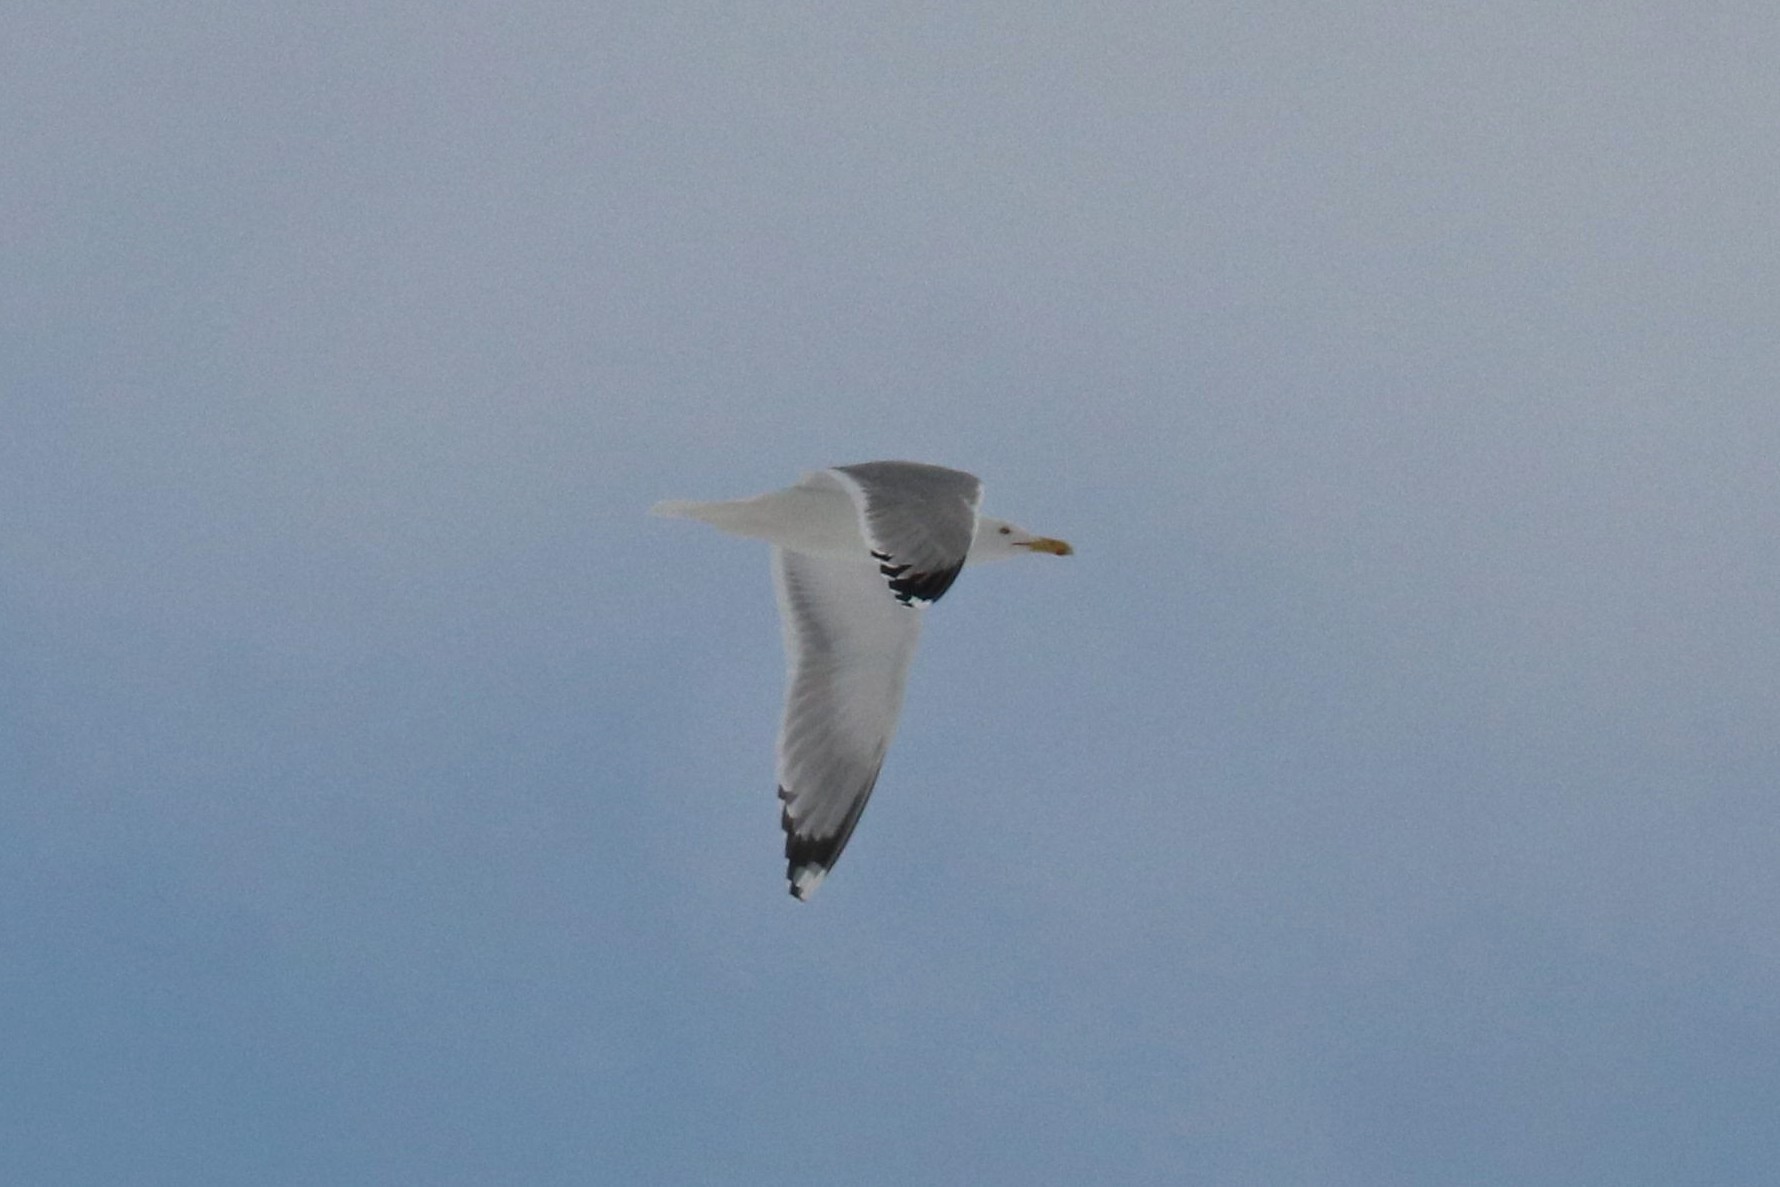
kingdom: Animalia
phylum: Chordata
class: Aves
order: Charadriiformes
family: Laridae
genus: Larus
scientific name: Larus argentatus
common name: Herring gull
